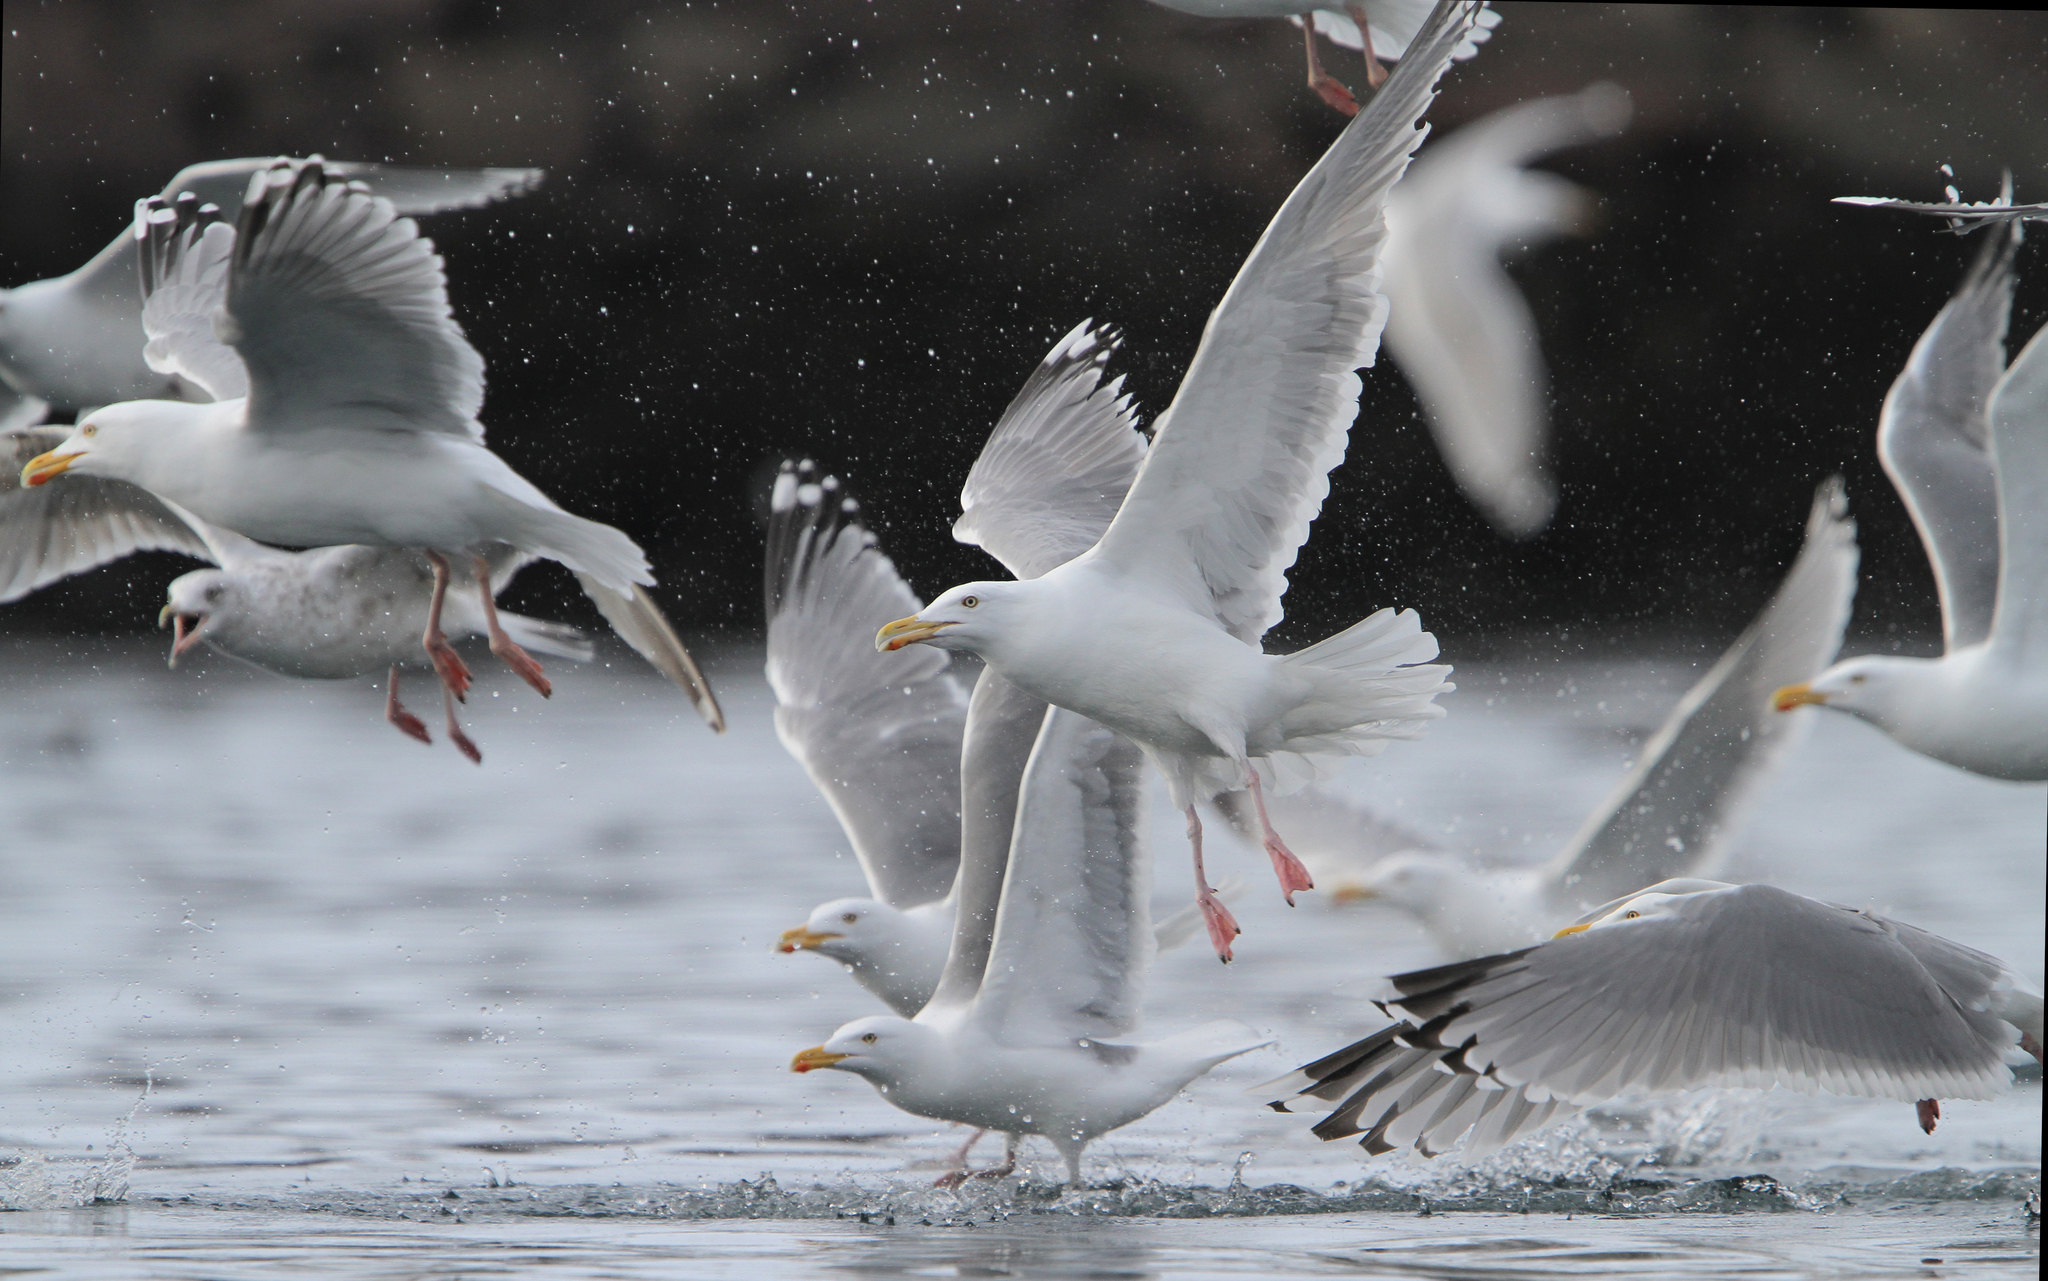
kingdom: Animalia
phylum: Chordata
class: Aves
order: Charadriiformes
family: Laridae
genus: Larus
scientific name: Larus argentatus
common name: Herring gull
